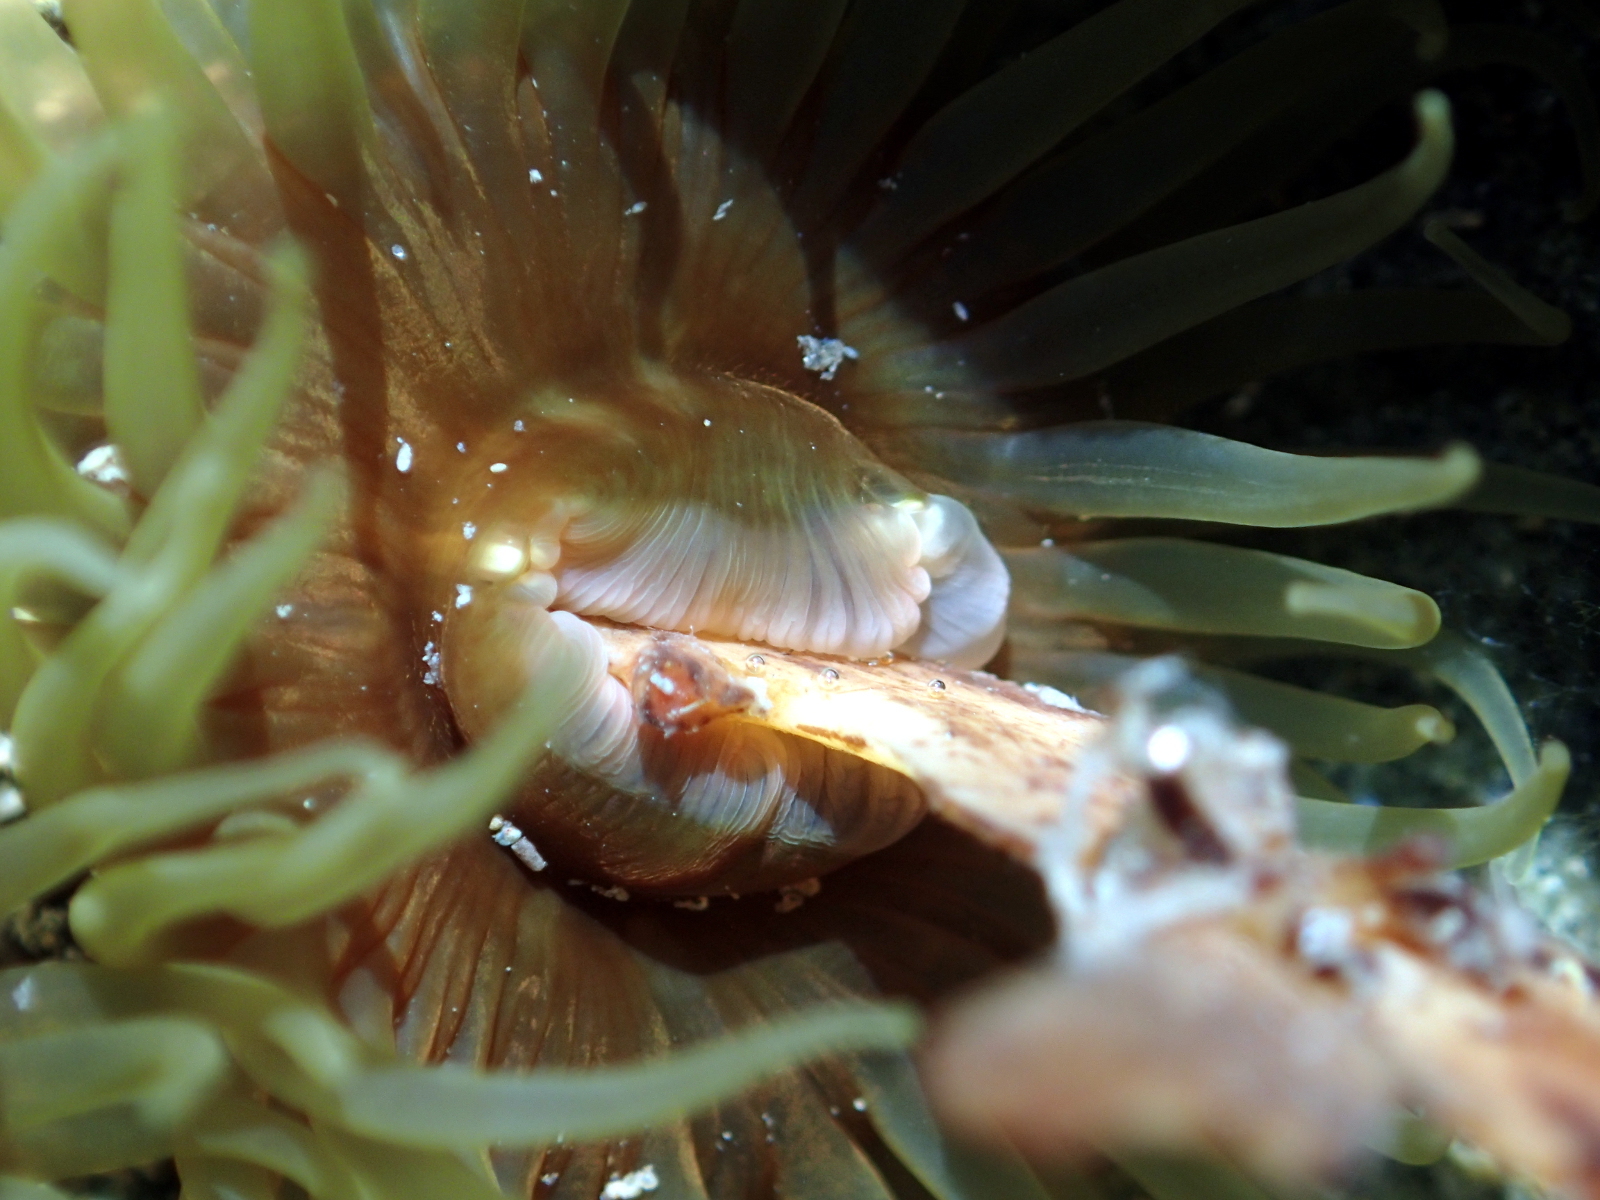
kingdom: Animalia
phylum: Cnidaria
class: Anthozoa
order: Actiniaria
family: Actiniidae
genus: Isactinia
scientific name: Isactinia olivacea
